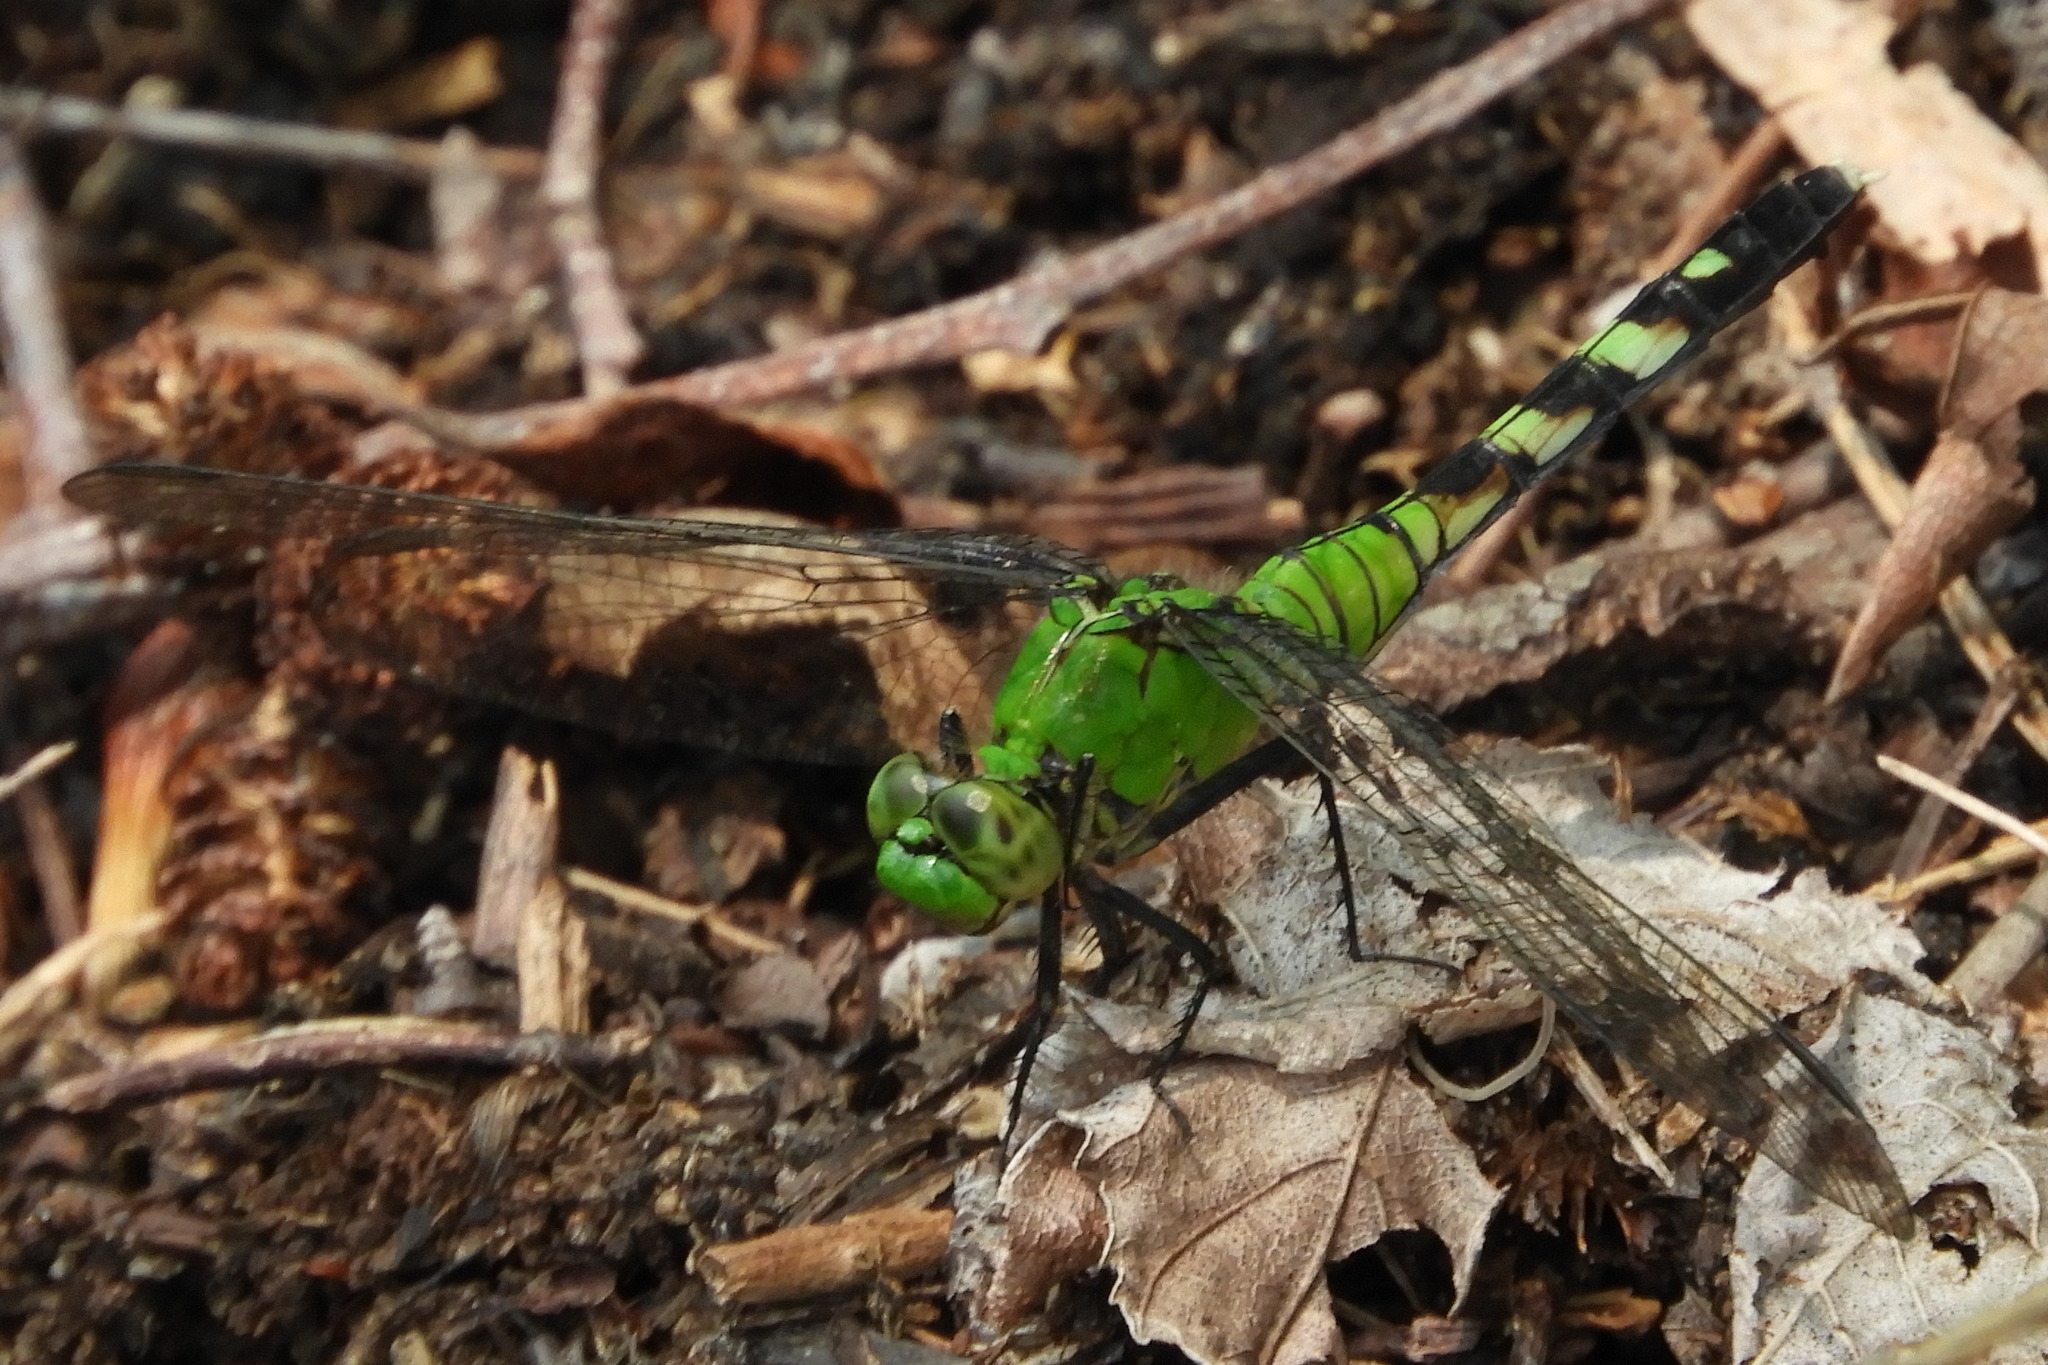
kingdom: Animalia
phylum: Arthropoda
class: Insecta
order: Odonata
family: Libellulidae
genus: Erythemis
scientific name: Erythemis simplicicollis
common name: Eastern pondhawk
